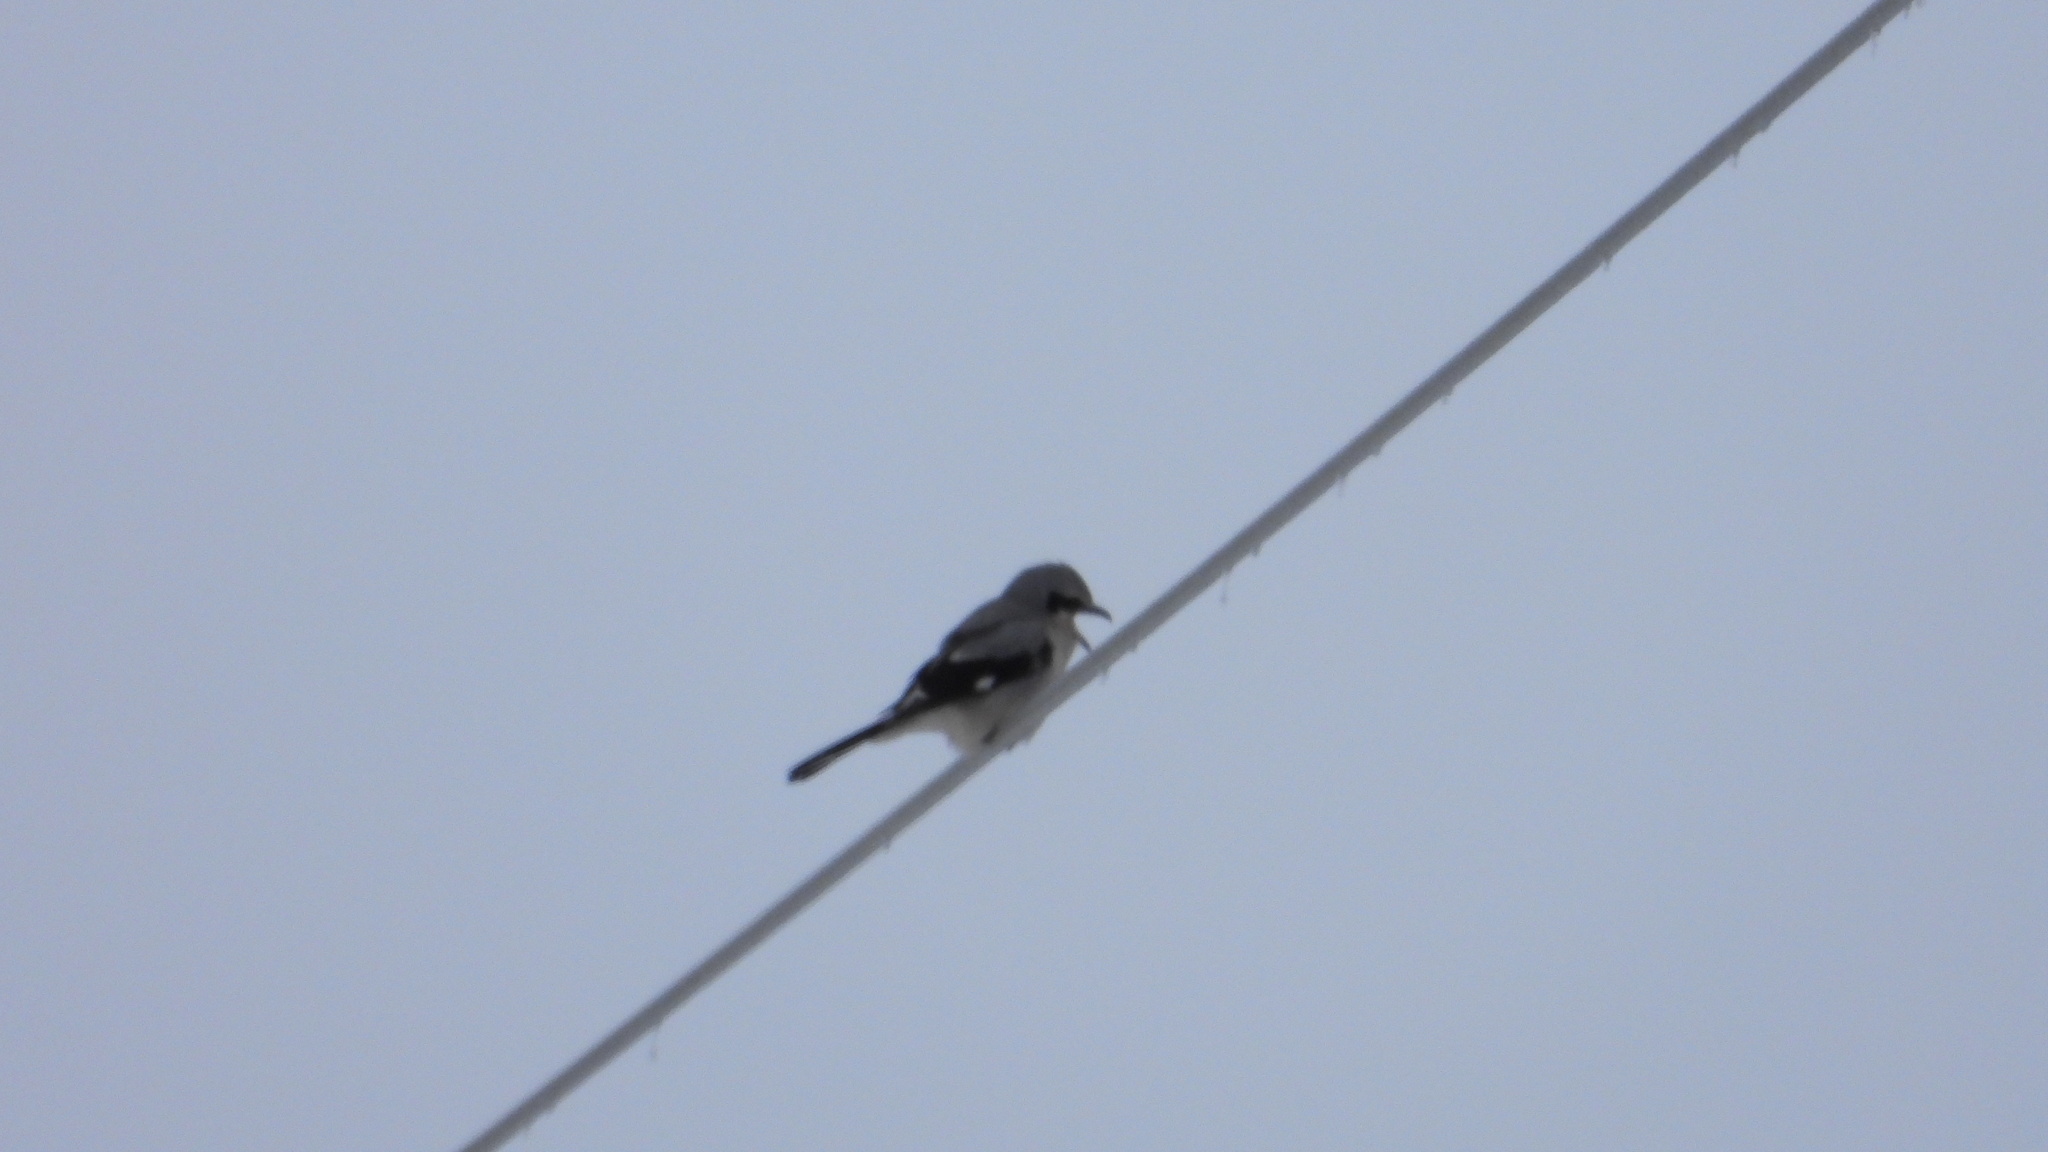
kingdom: Animalia
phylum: Chordata
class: Aves
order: Passeriformes
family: Laniidae
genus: Lanius
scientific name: Lanius borealis
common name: Northern shrike
